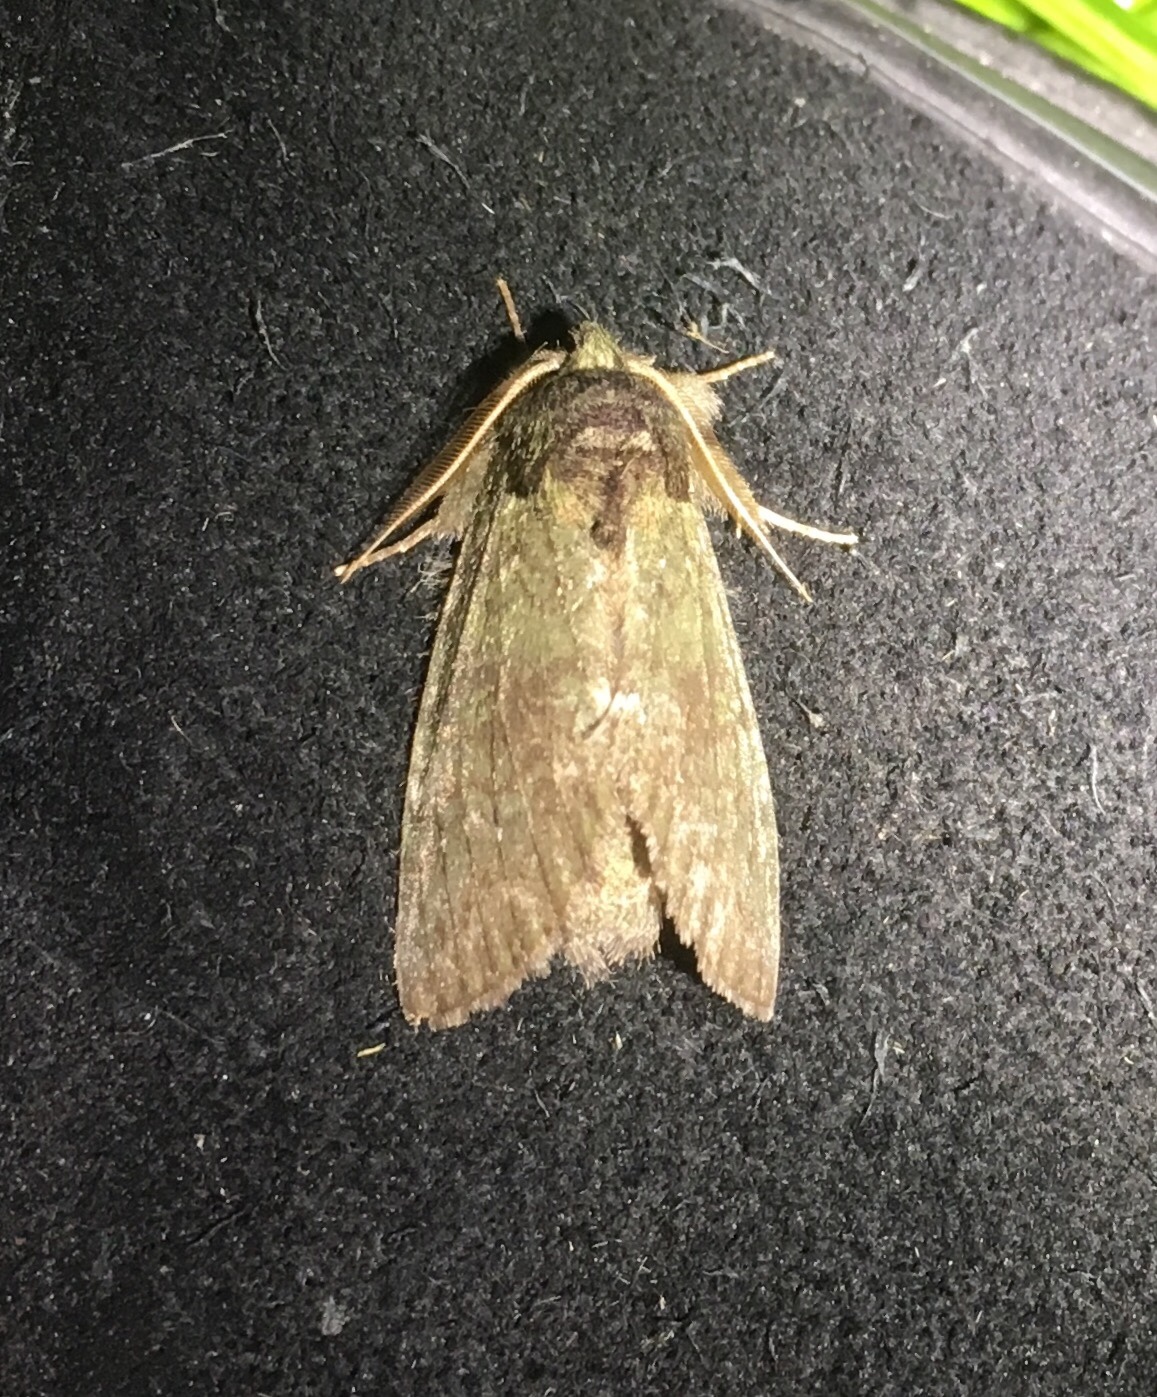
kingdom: Animalia
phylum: Arthropoda
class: Insecta
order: Lepidoptera
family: Notodontidae
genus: Disphragis
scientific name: Disphragis Cecrita guttivitta
